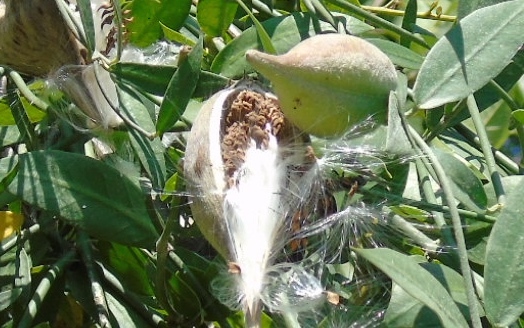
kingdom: Plantae
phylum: Tracheophyta
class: Magnoliopsida
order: Gentianales
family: Apocynaceae
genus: Funastrum
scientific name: Funastrum clausum
